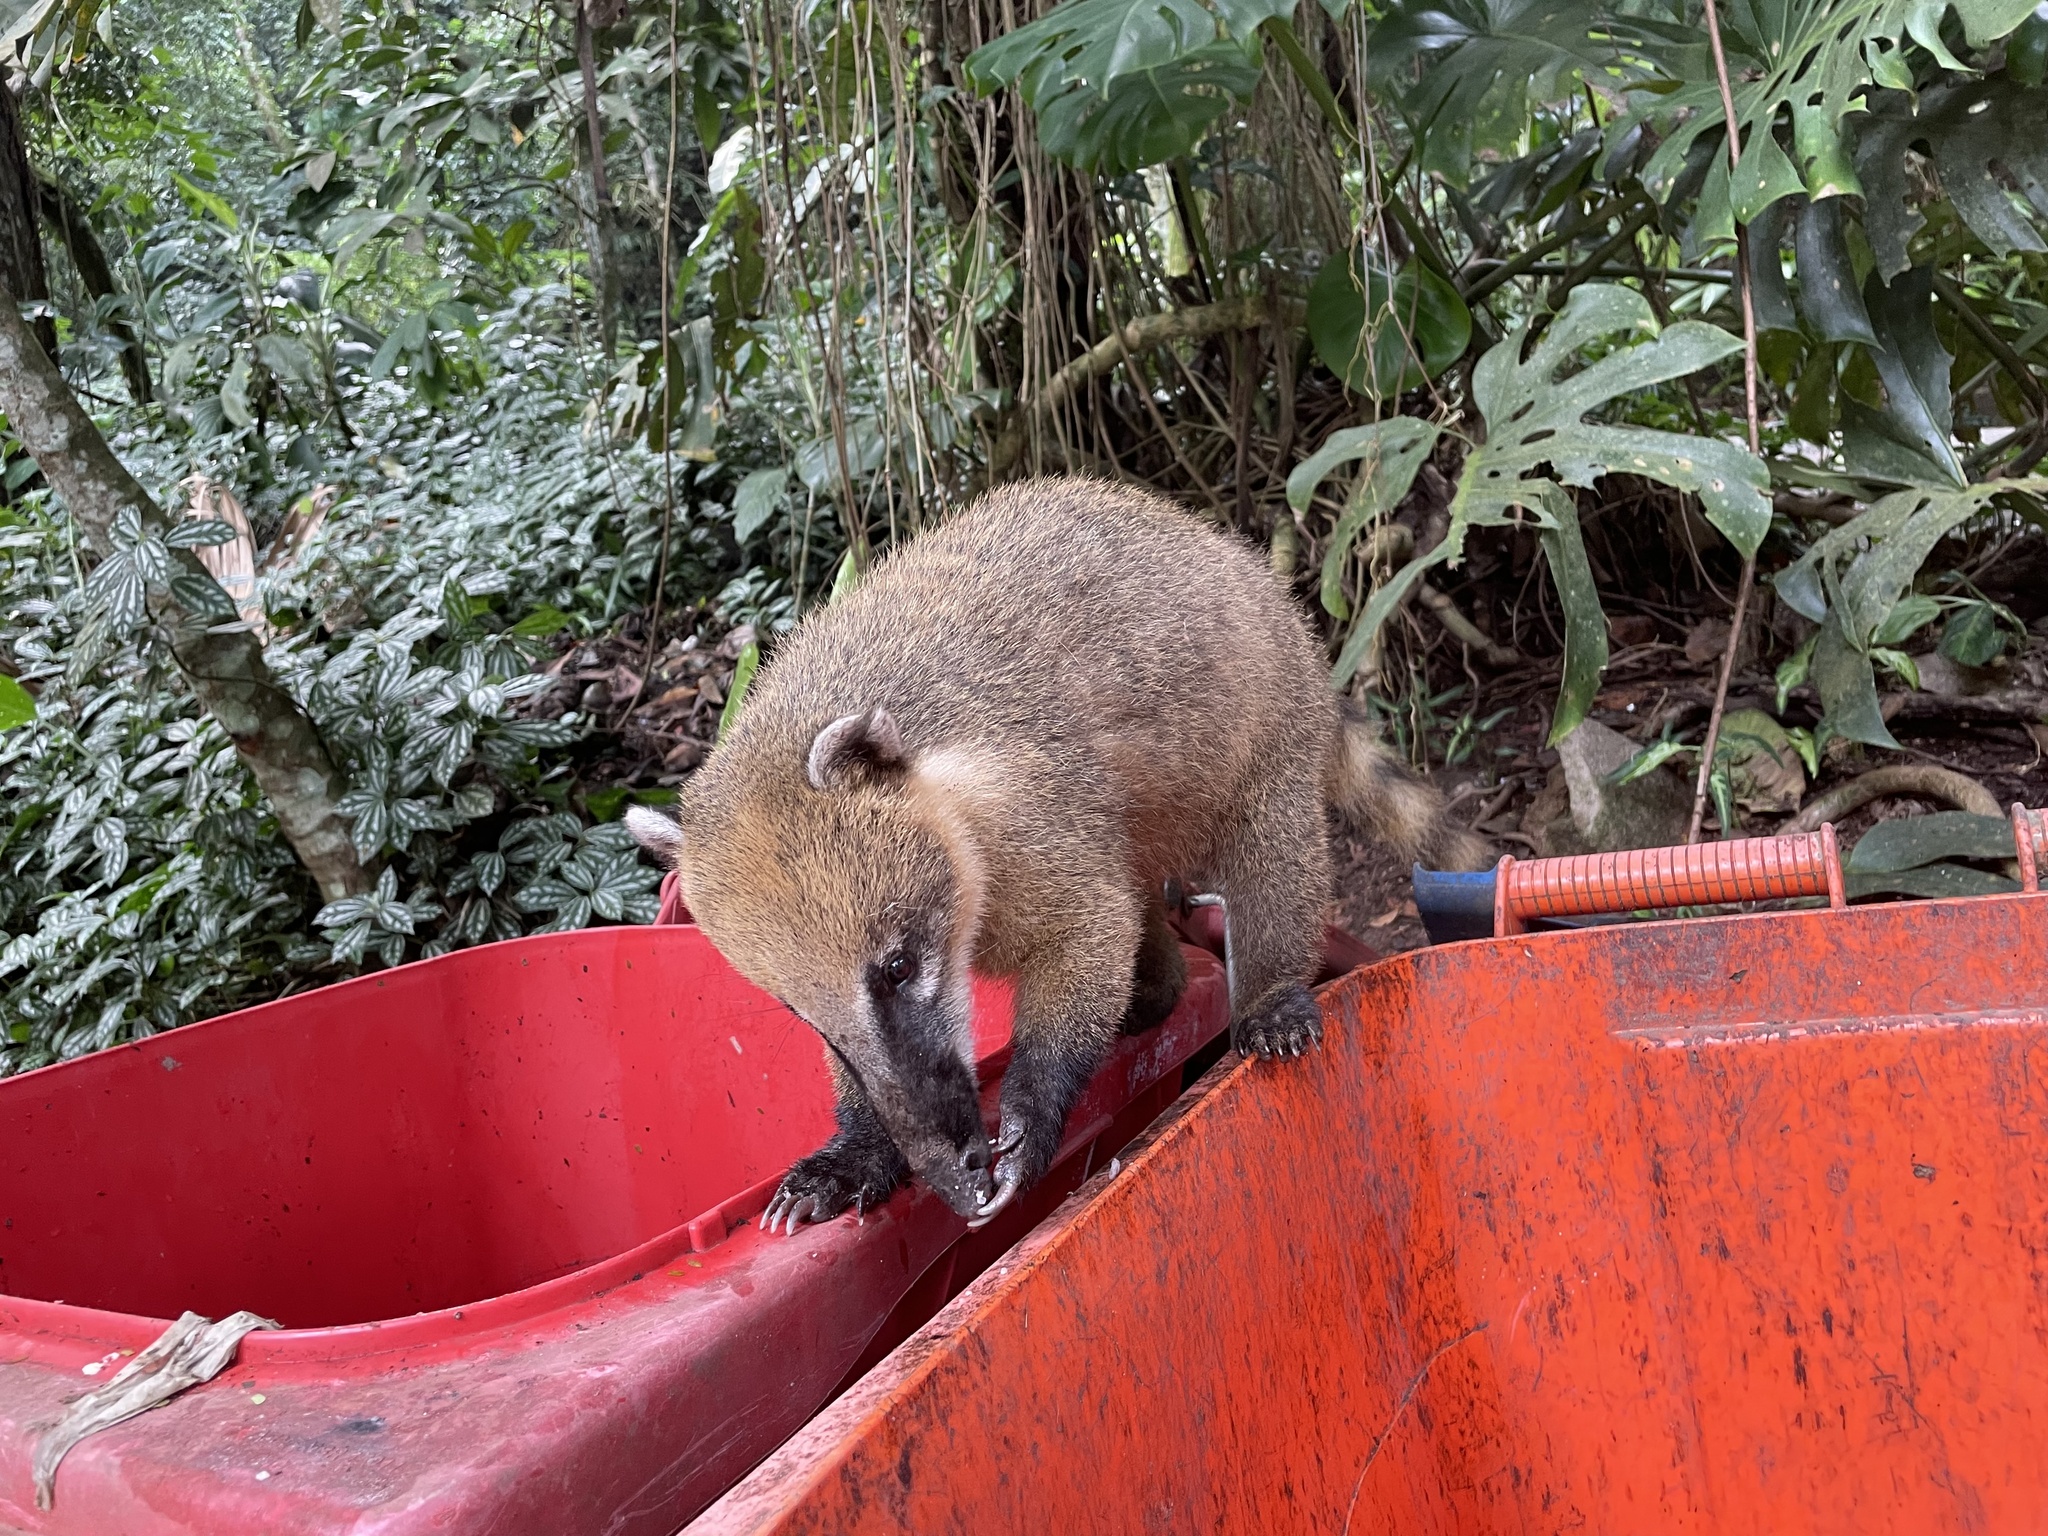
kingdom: Animalia
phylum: Chordata
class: Mammalia
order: Carnivora
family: Procyonidae
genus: Nasua
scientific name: Nasua nasua
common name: South american coati
